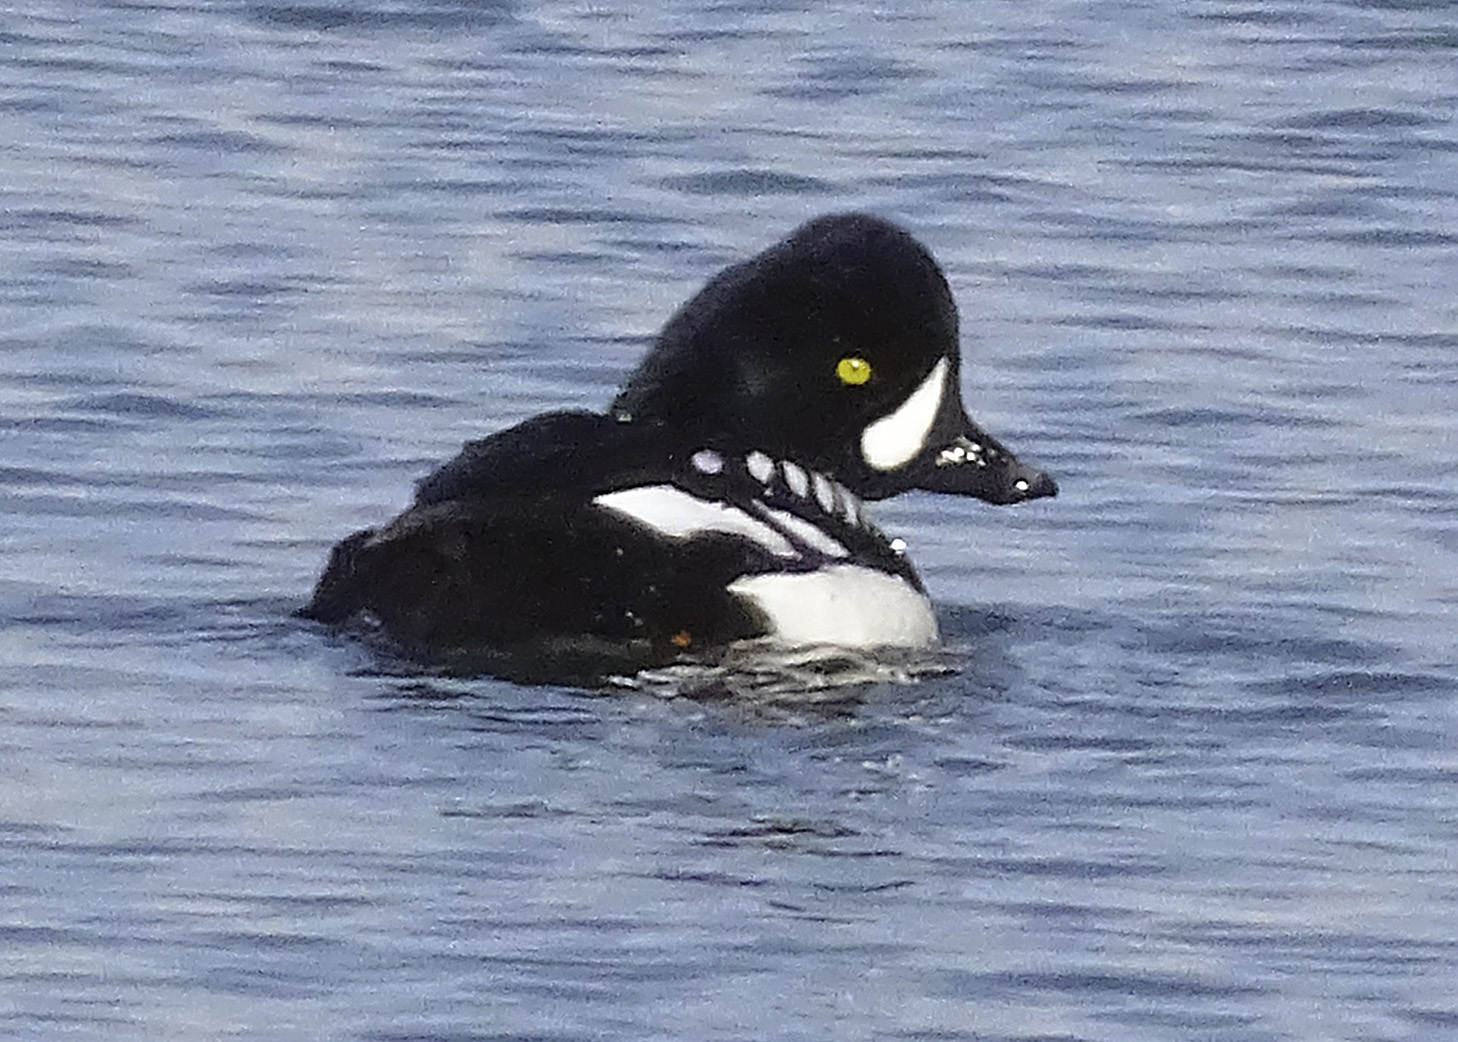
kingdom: Animalia
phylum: Chordata
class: Aves
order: Anseriformes
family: Anatidae
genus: Bucephala
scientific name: Bucephala islandica
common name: Barrow's goldeneye
